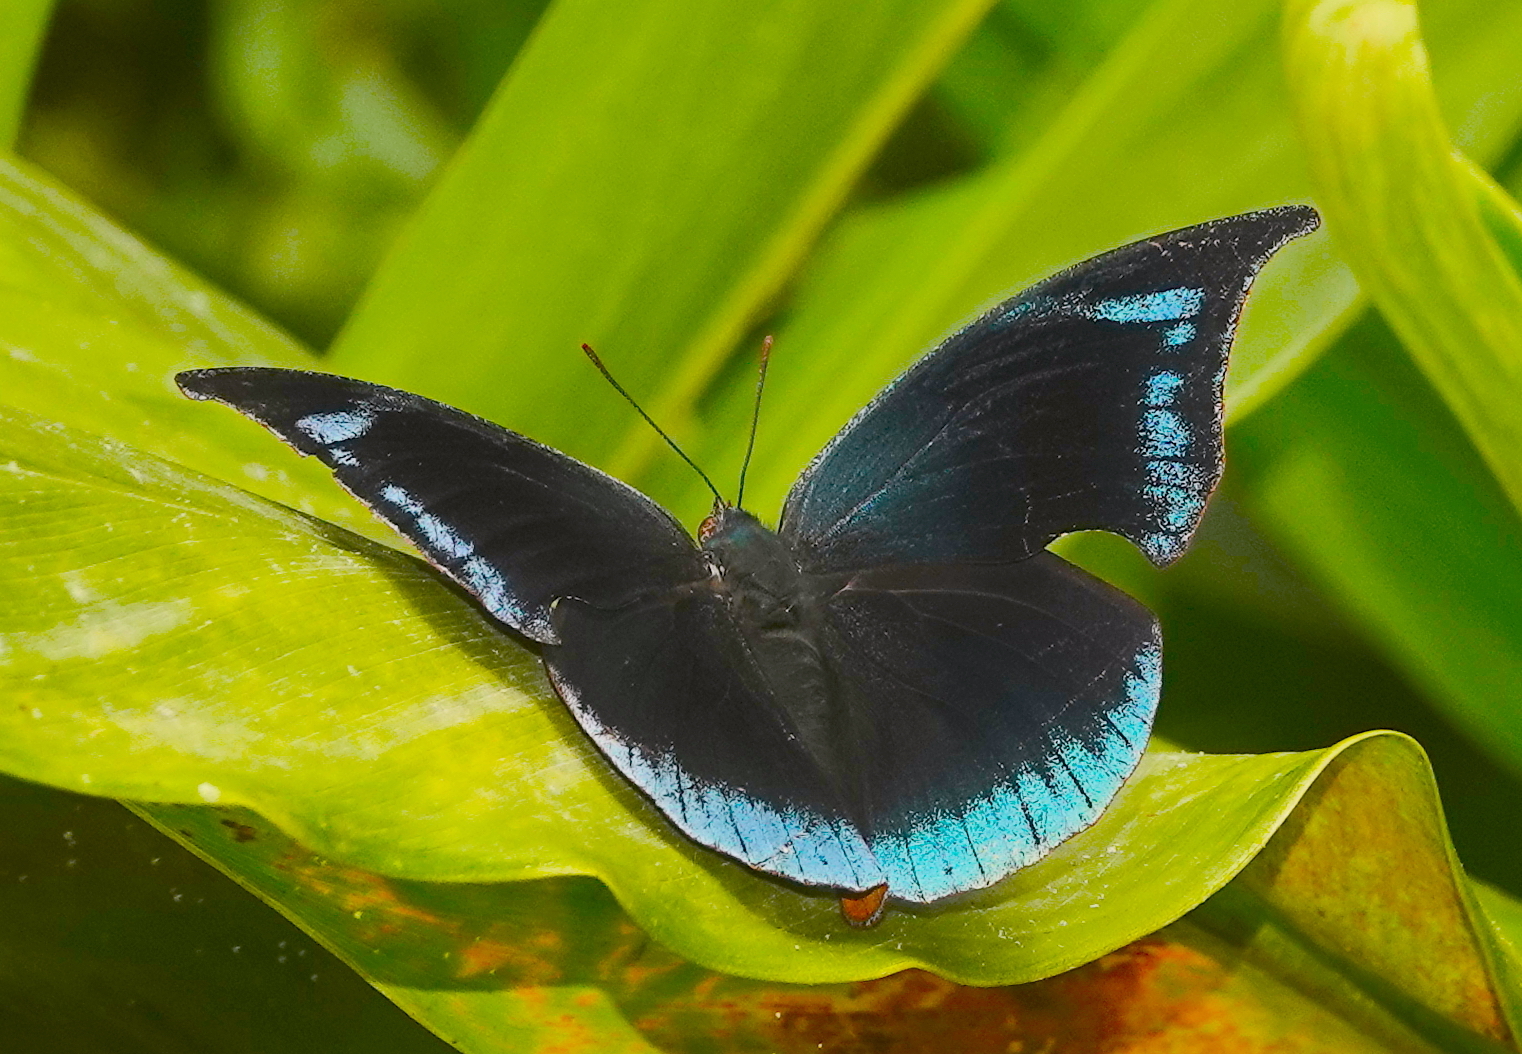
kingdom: Animalia
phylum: Arthropoda
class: Insecta
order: Lepidoptera
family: Nymphalidae
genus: Memphis
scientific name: Memphis
